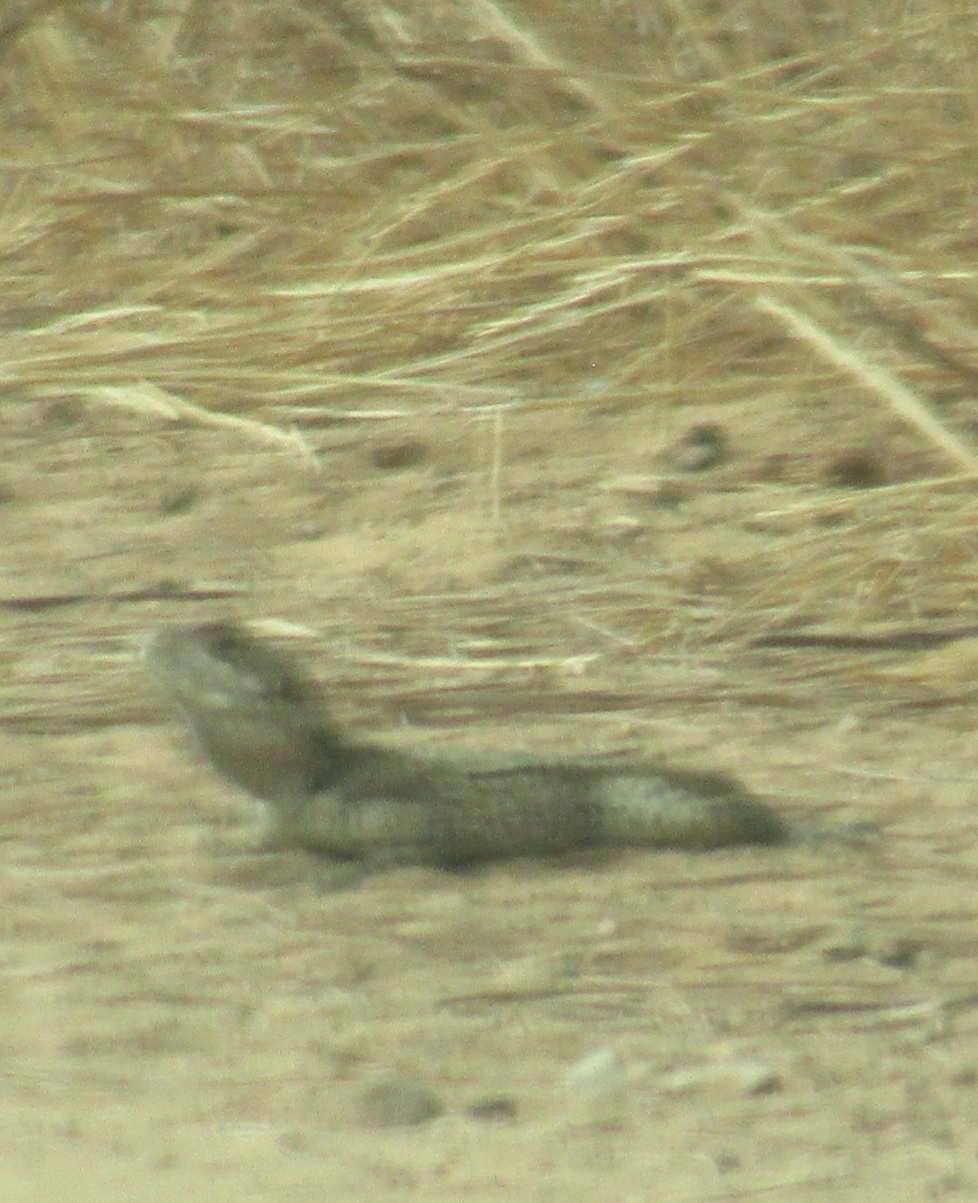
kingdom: Animalia
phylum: Chordata
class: Squamata
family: Agamidae
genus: Laudakia
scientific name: Laudakia vulgaris
